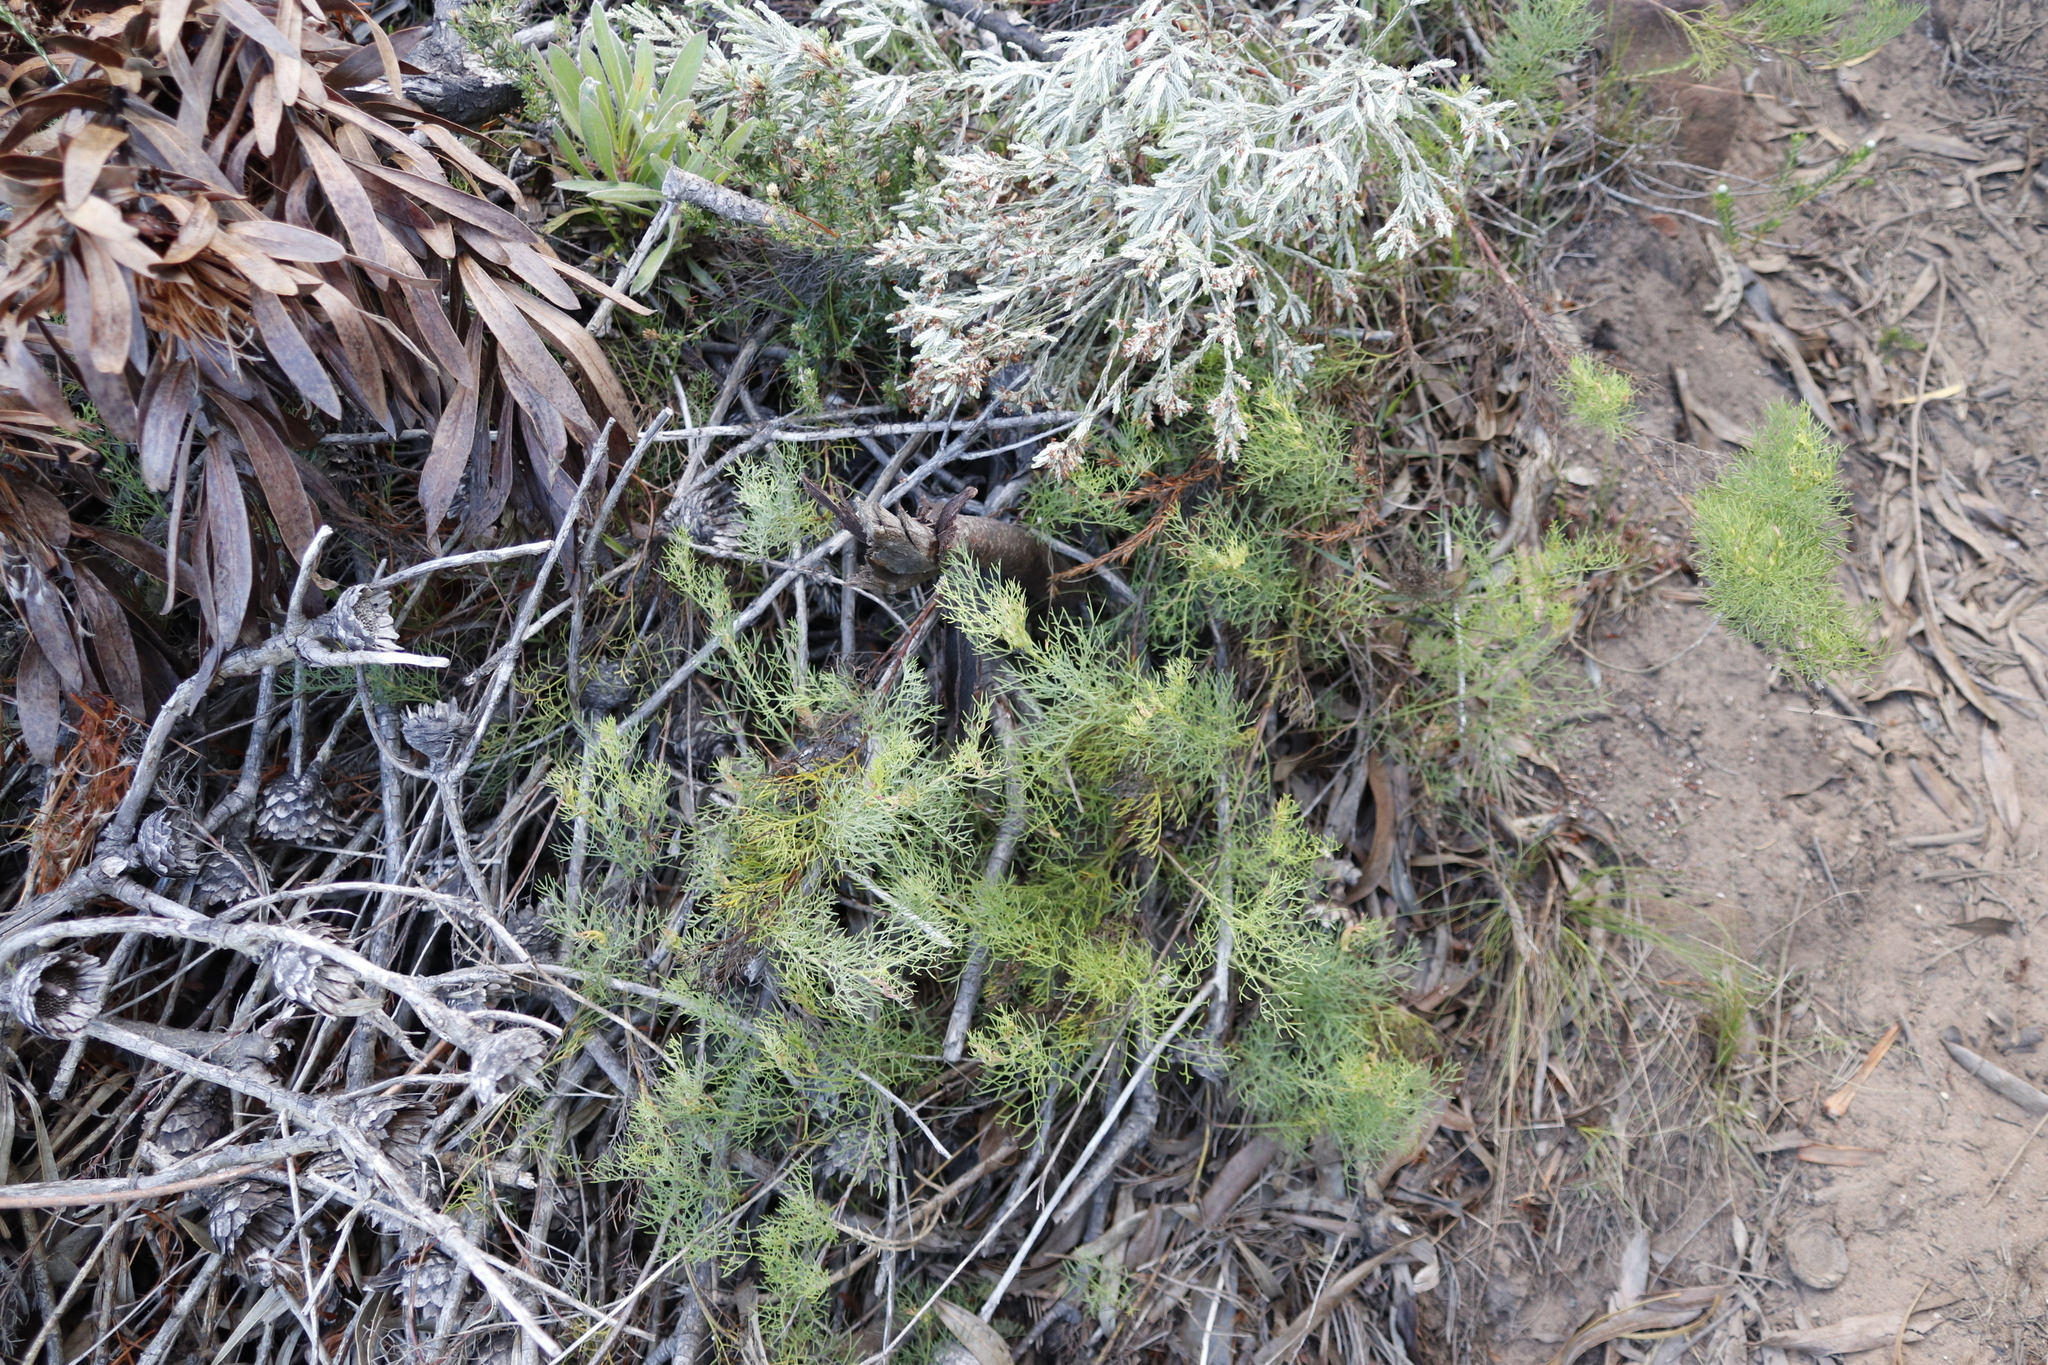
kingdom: Plantae
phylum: Tracheophyta
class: Magnoliopsida
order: Apiales
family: Apiaceae
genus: Notobubon
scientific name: Notobubon ferulaceum
